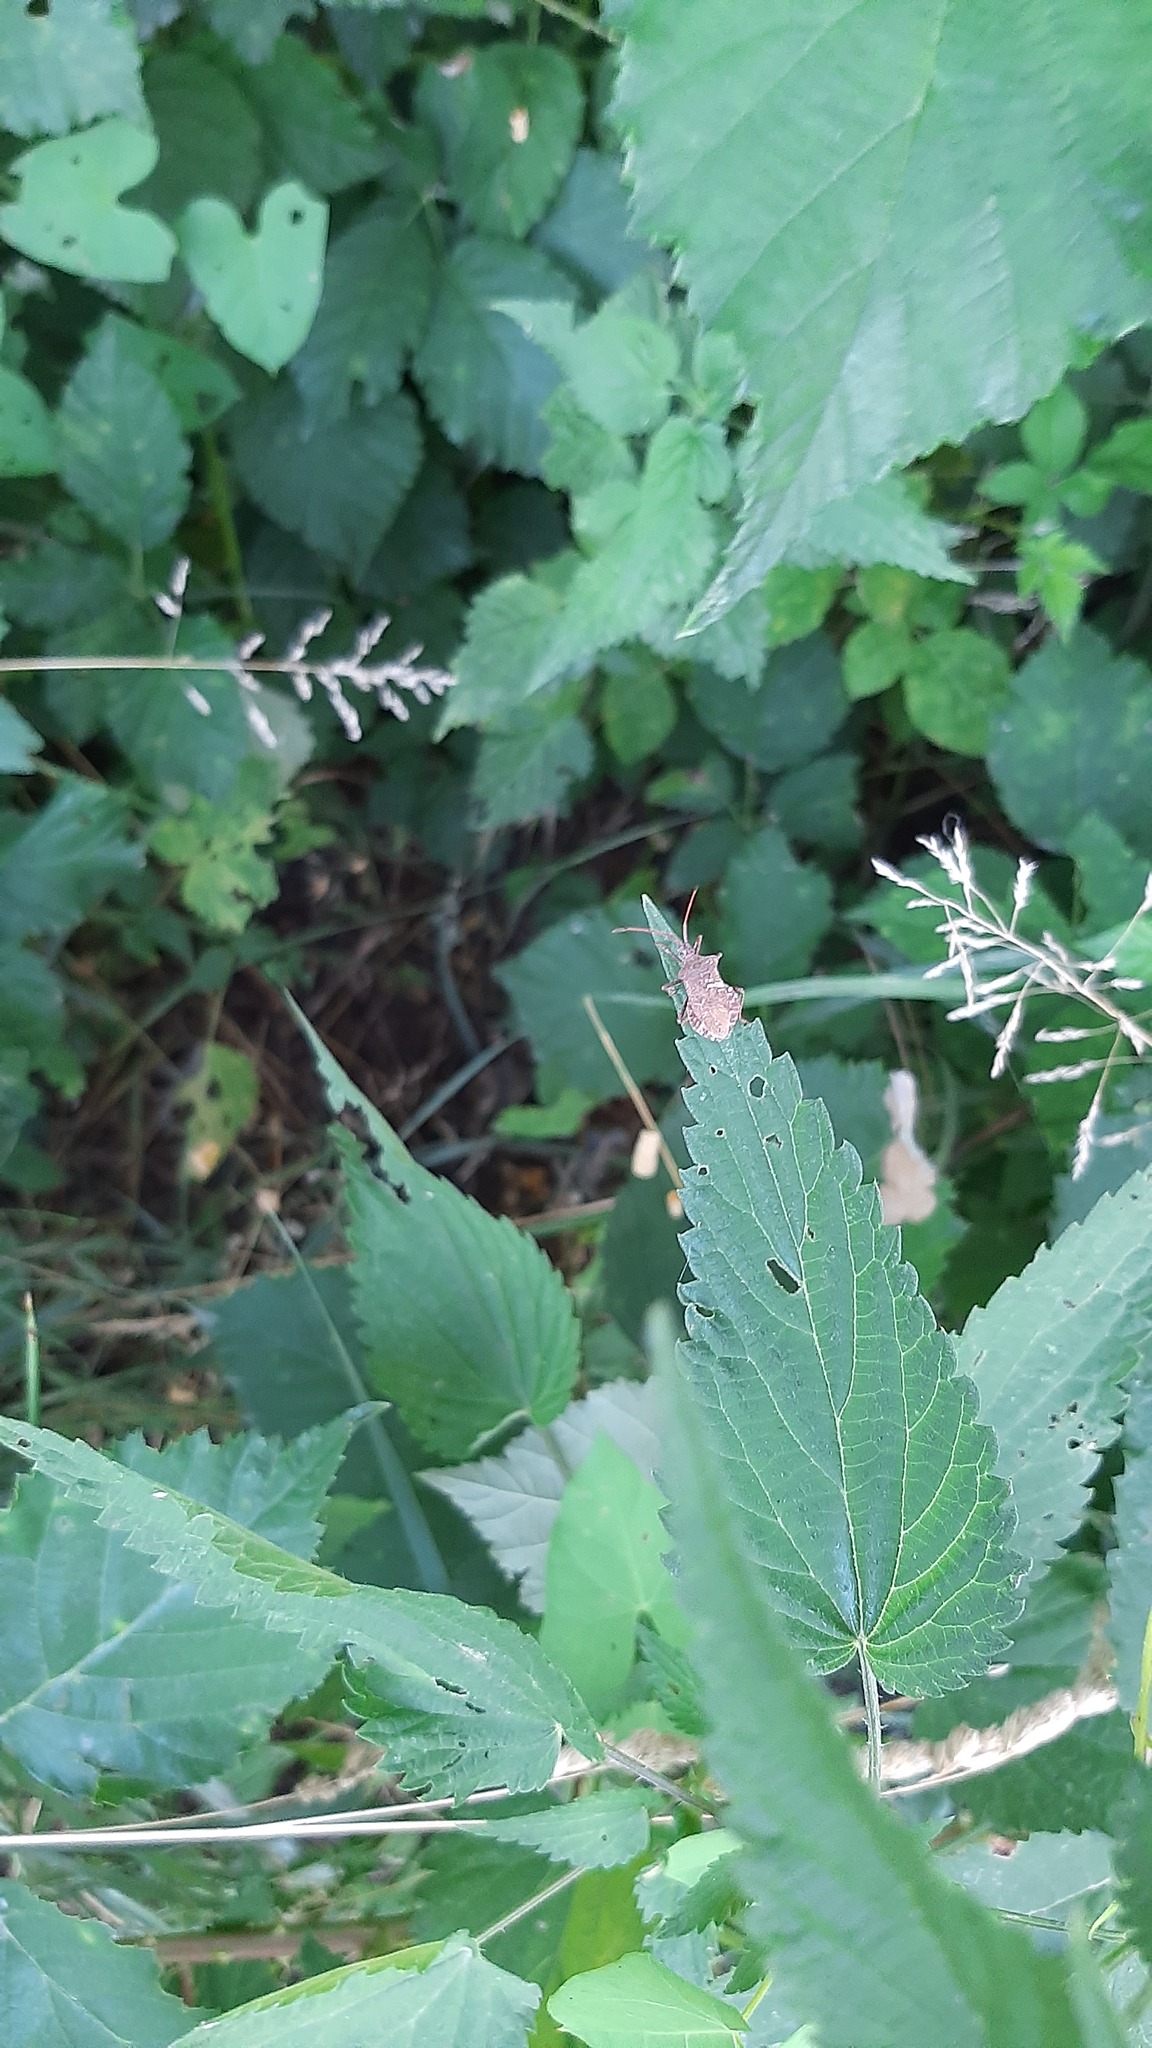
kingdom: Animalia
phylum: Arthropoda
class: Insecta
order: Hemiptera
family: Coreidae
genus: Coreus
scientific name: Coreus marginatus
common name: Dock bug
